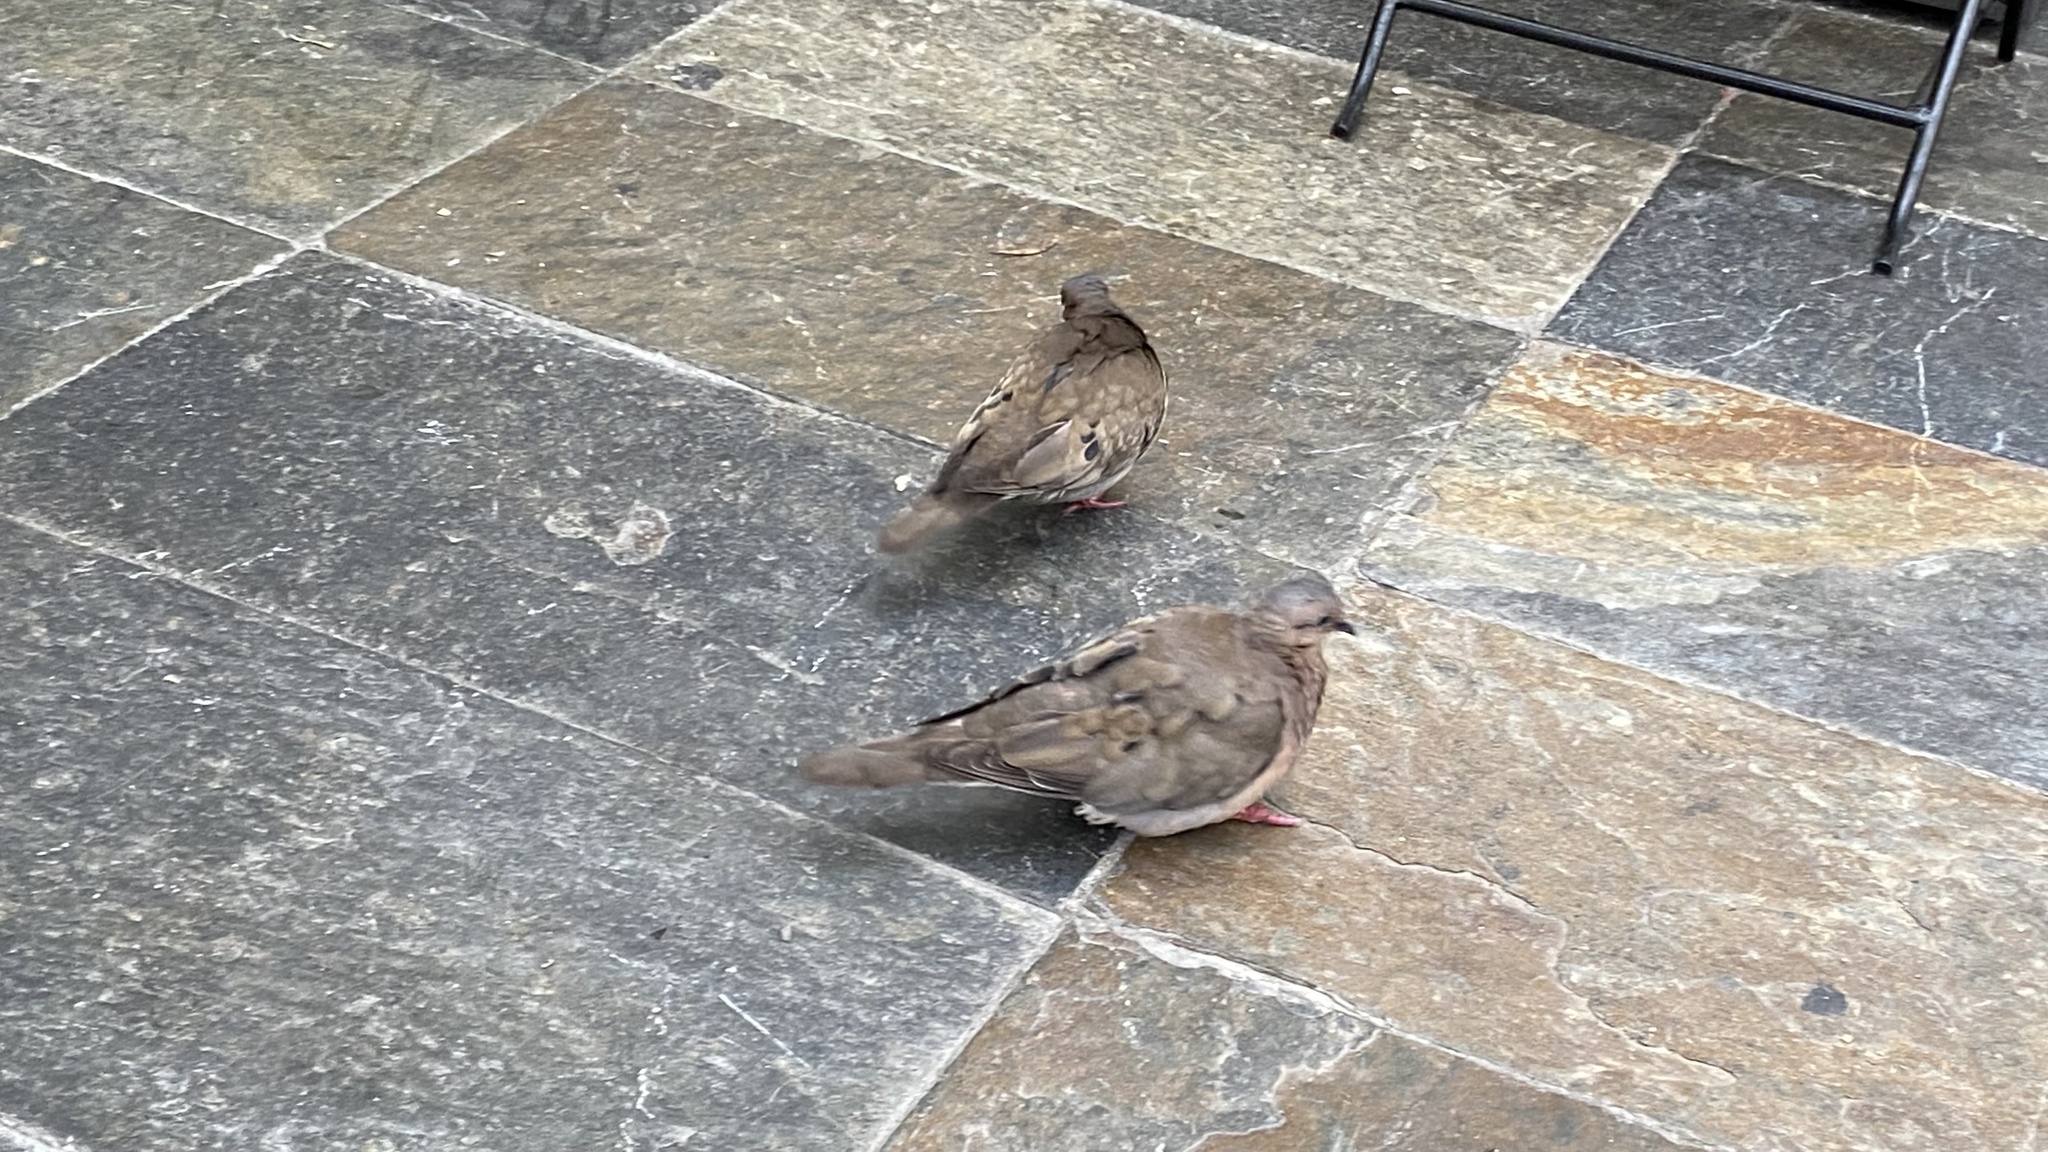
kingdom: Animalia
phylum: Chordata
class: Aves
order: Columbiformes
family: Columbidae
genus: Zenaida
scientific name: Zenaida auriculata
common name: Eared dove
